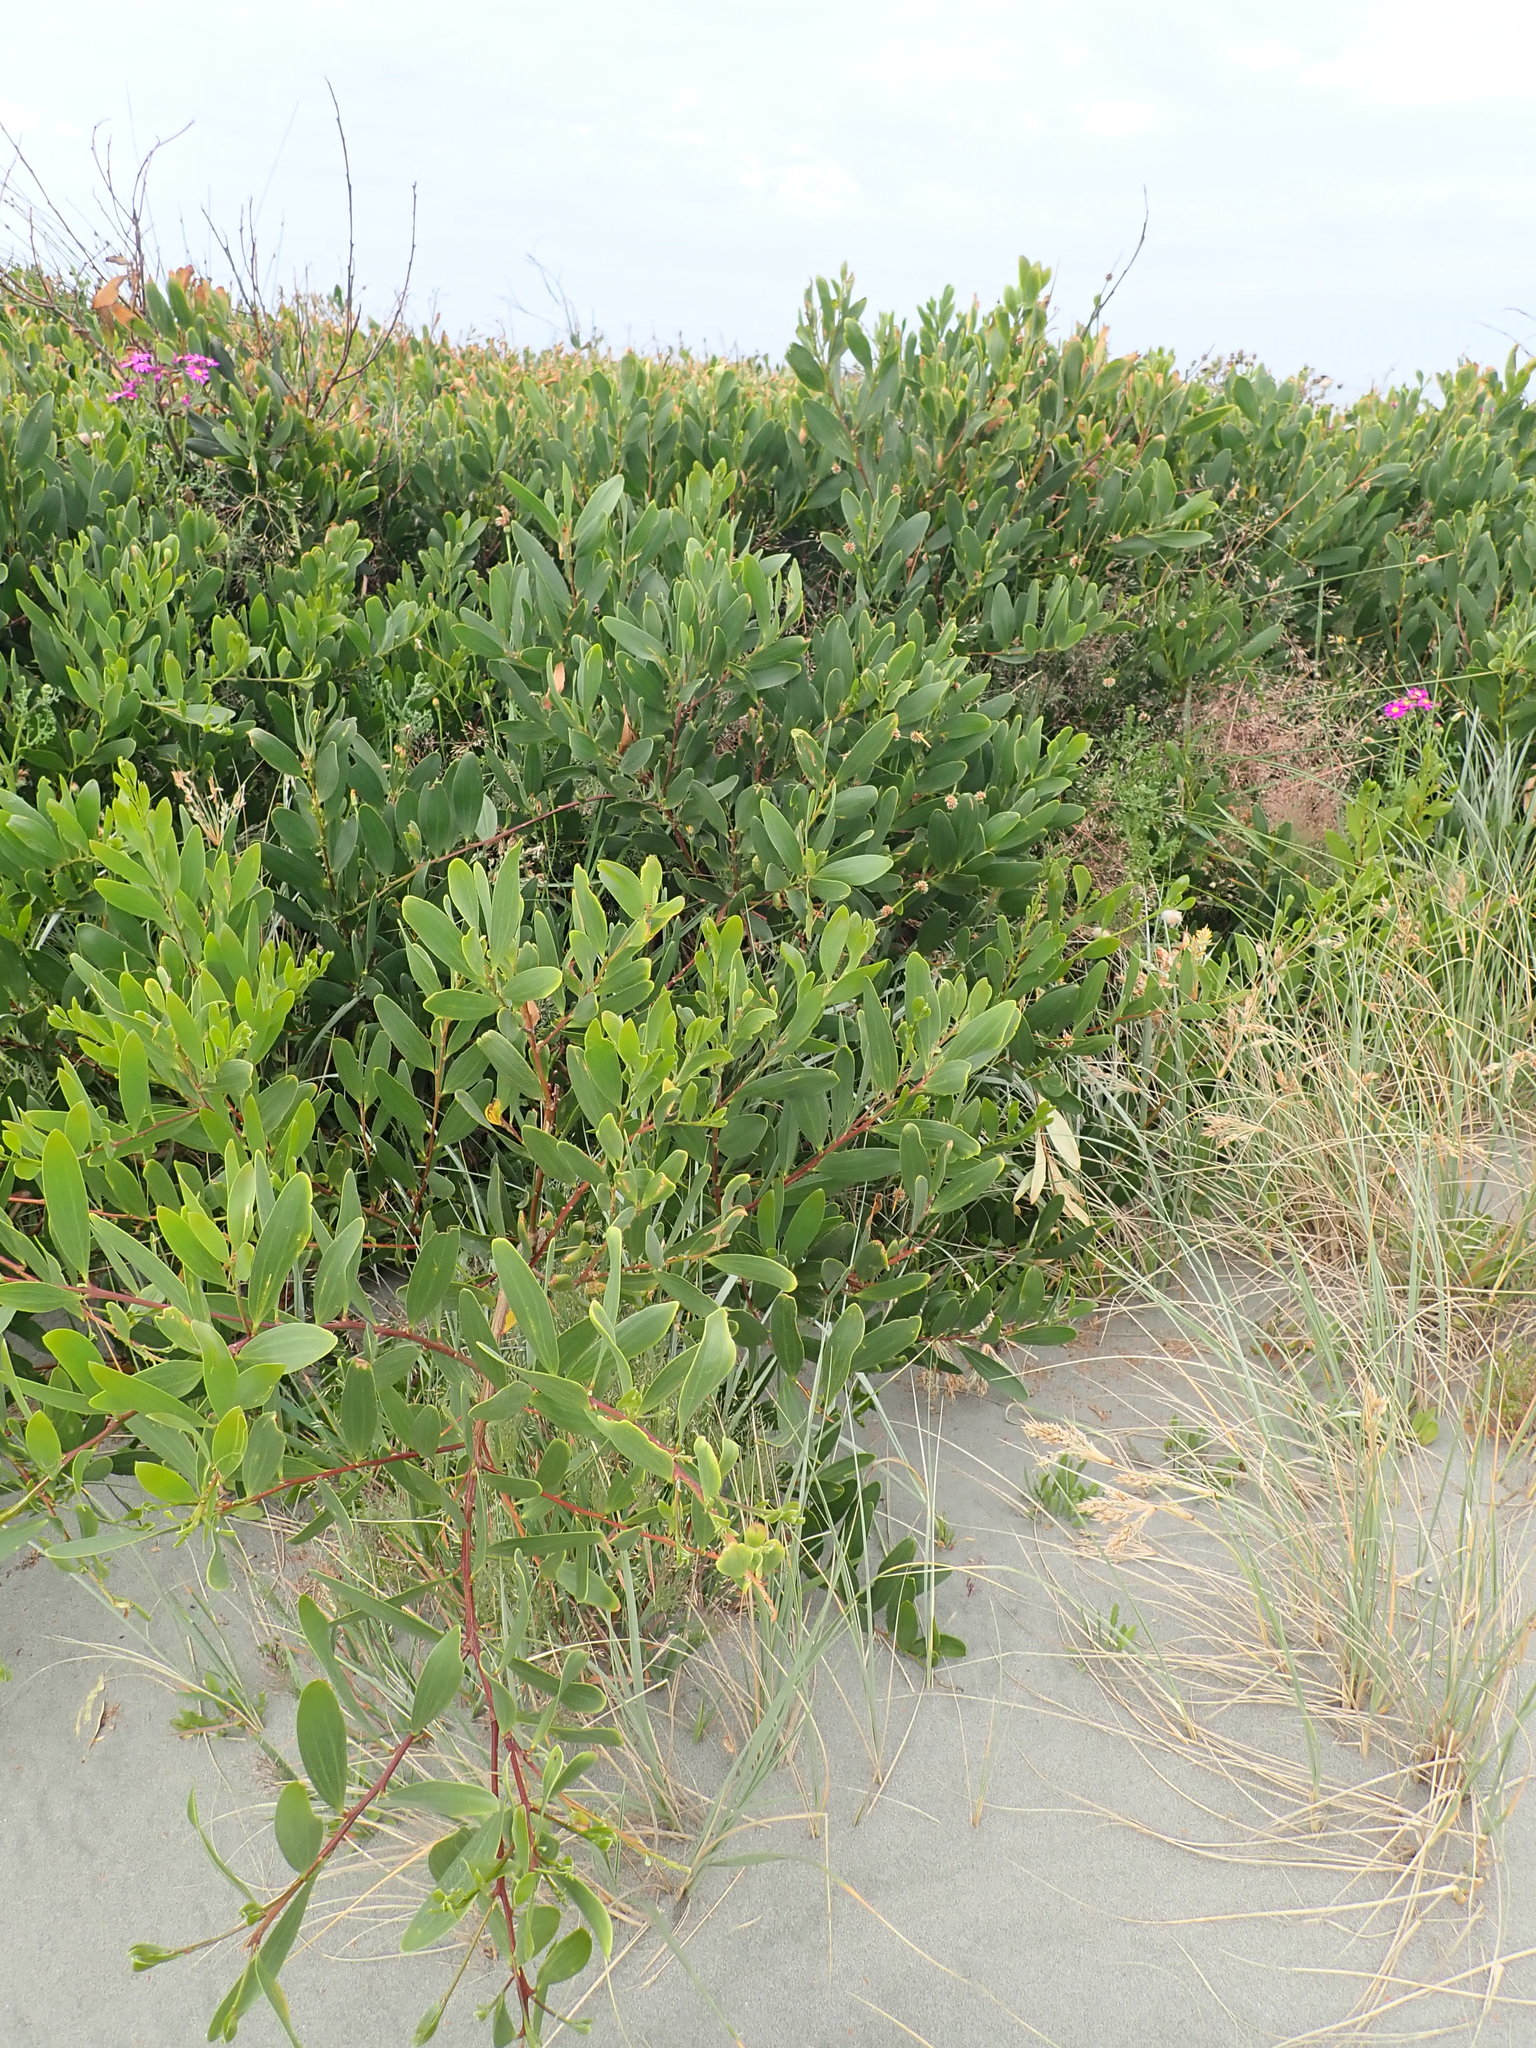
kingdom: Plantae
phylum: Tracheophyta
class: Magnoliopsida
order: Asterales
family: Asteraceae
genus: Senecio
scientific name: Senecio elegans
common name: Purple groundsel
